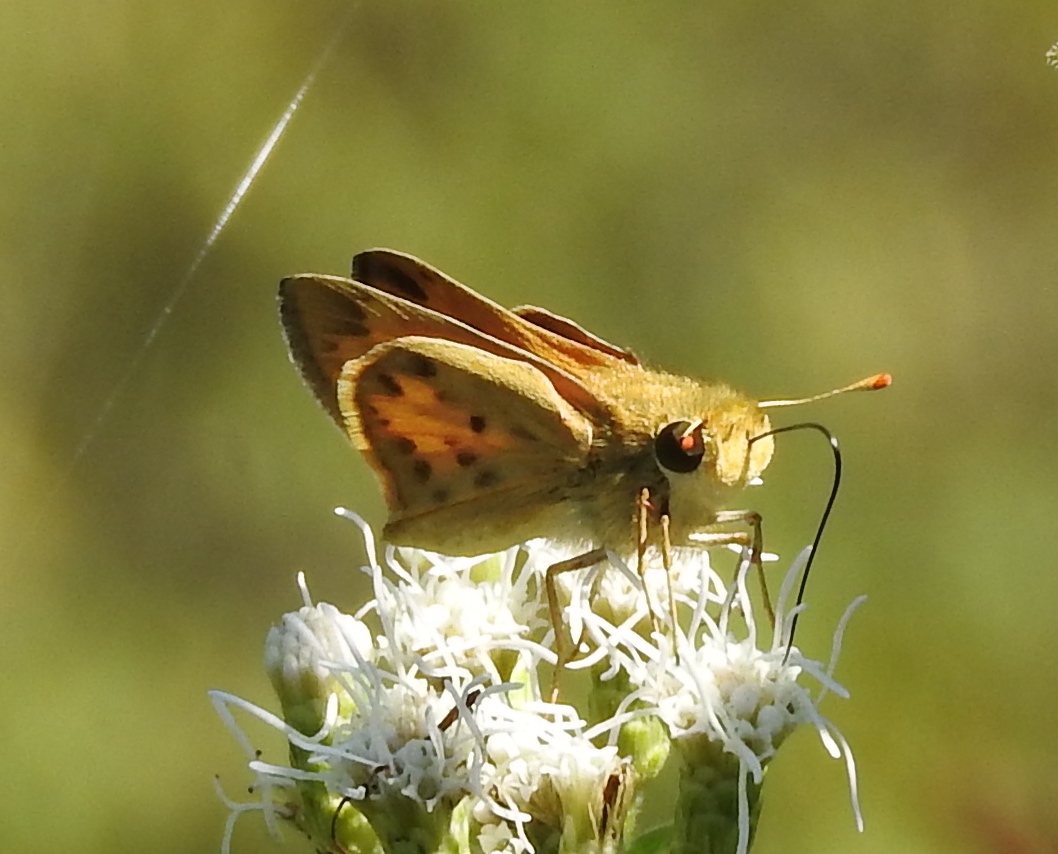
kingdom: Animalia
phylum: Arthropoda
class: Insecta
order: Lepidoptera
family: Hesperiidae
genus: Hylephila
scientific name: Hylephila phyleus
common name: Fiery skipper
